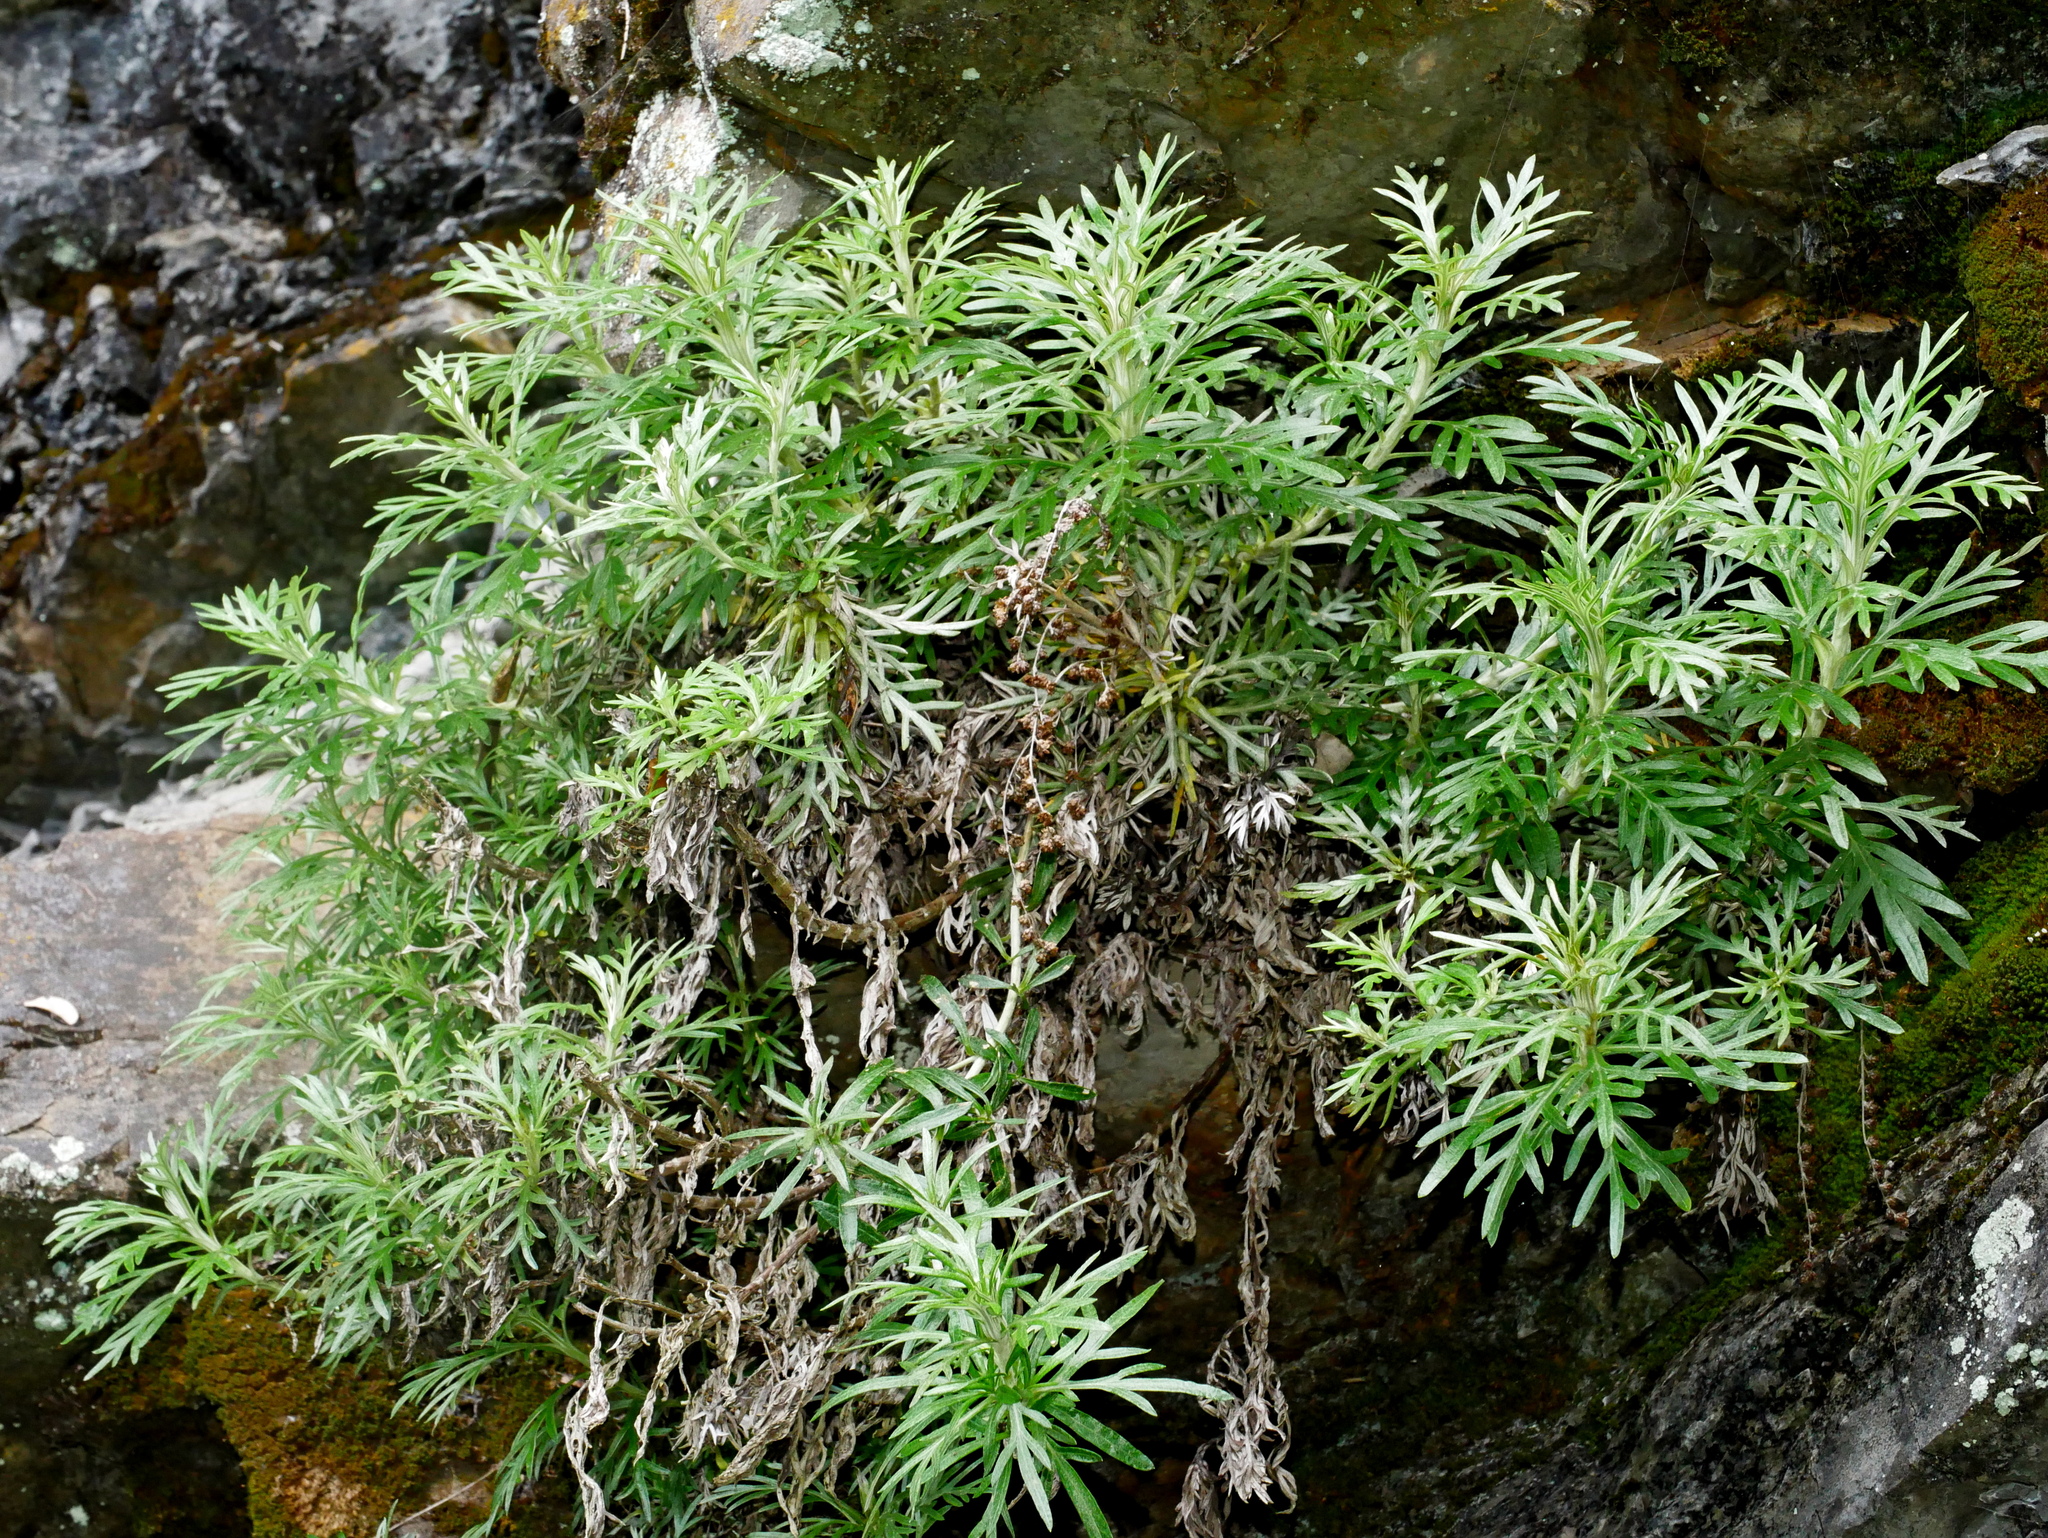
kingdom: Plantae
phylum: Tracheophyta
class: Magnoliopsida
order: Asterales
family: Asteraceae
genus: Artemisia
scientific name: Artemisia somae
